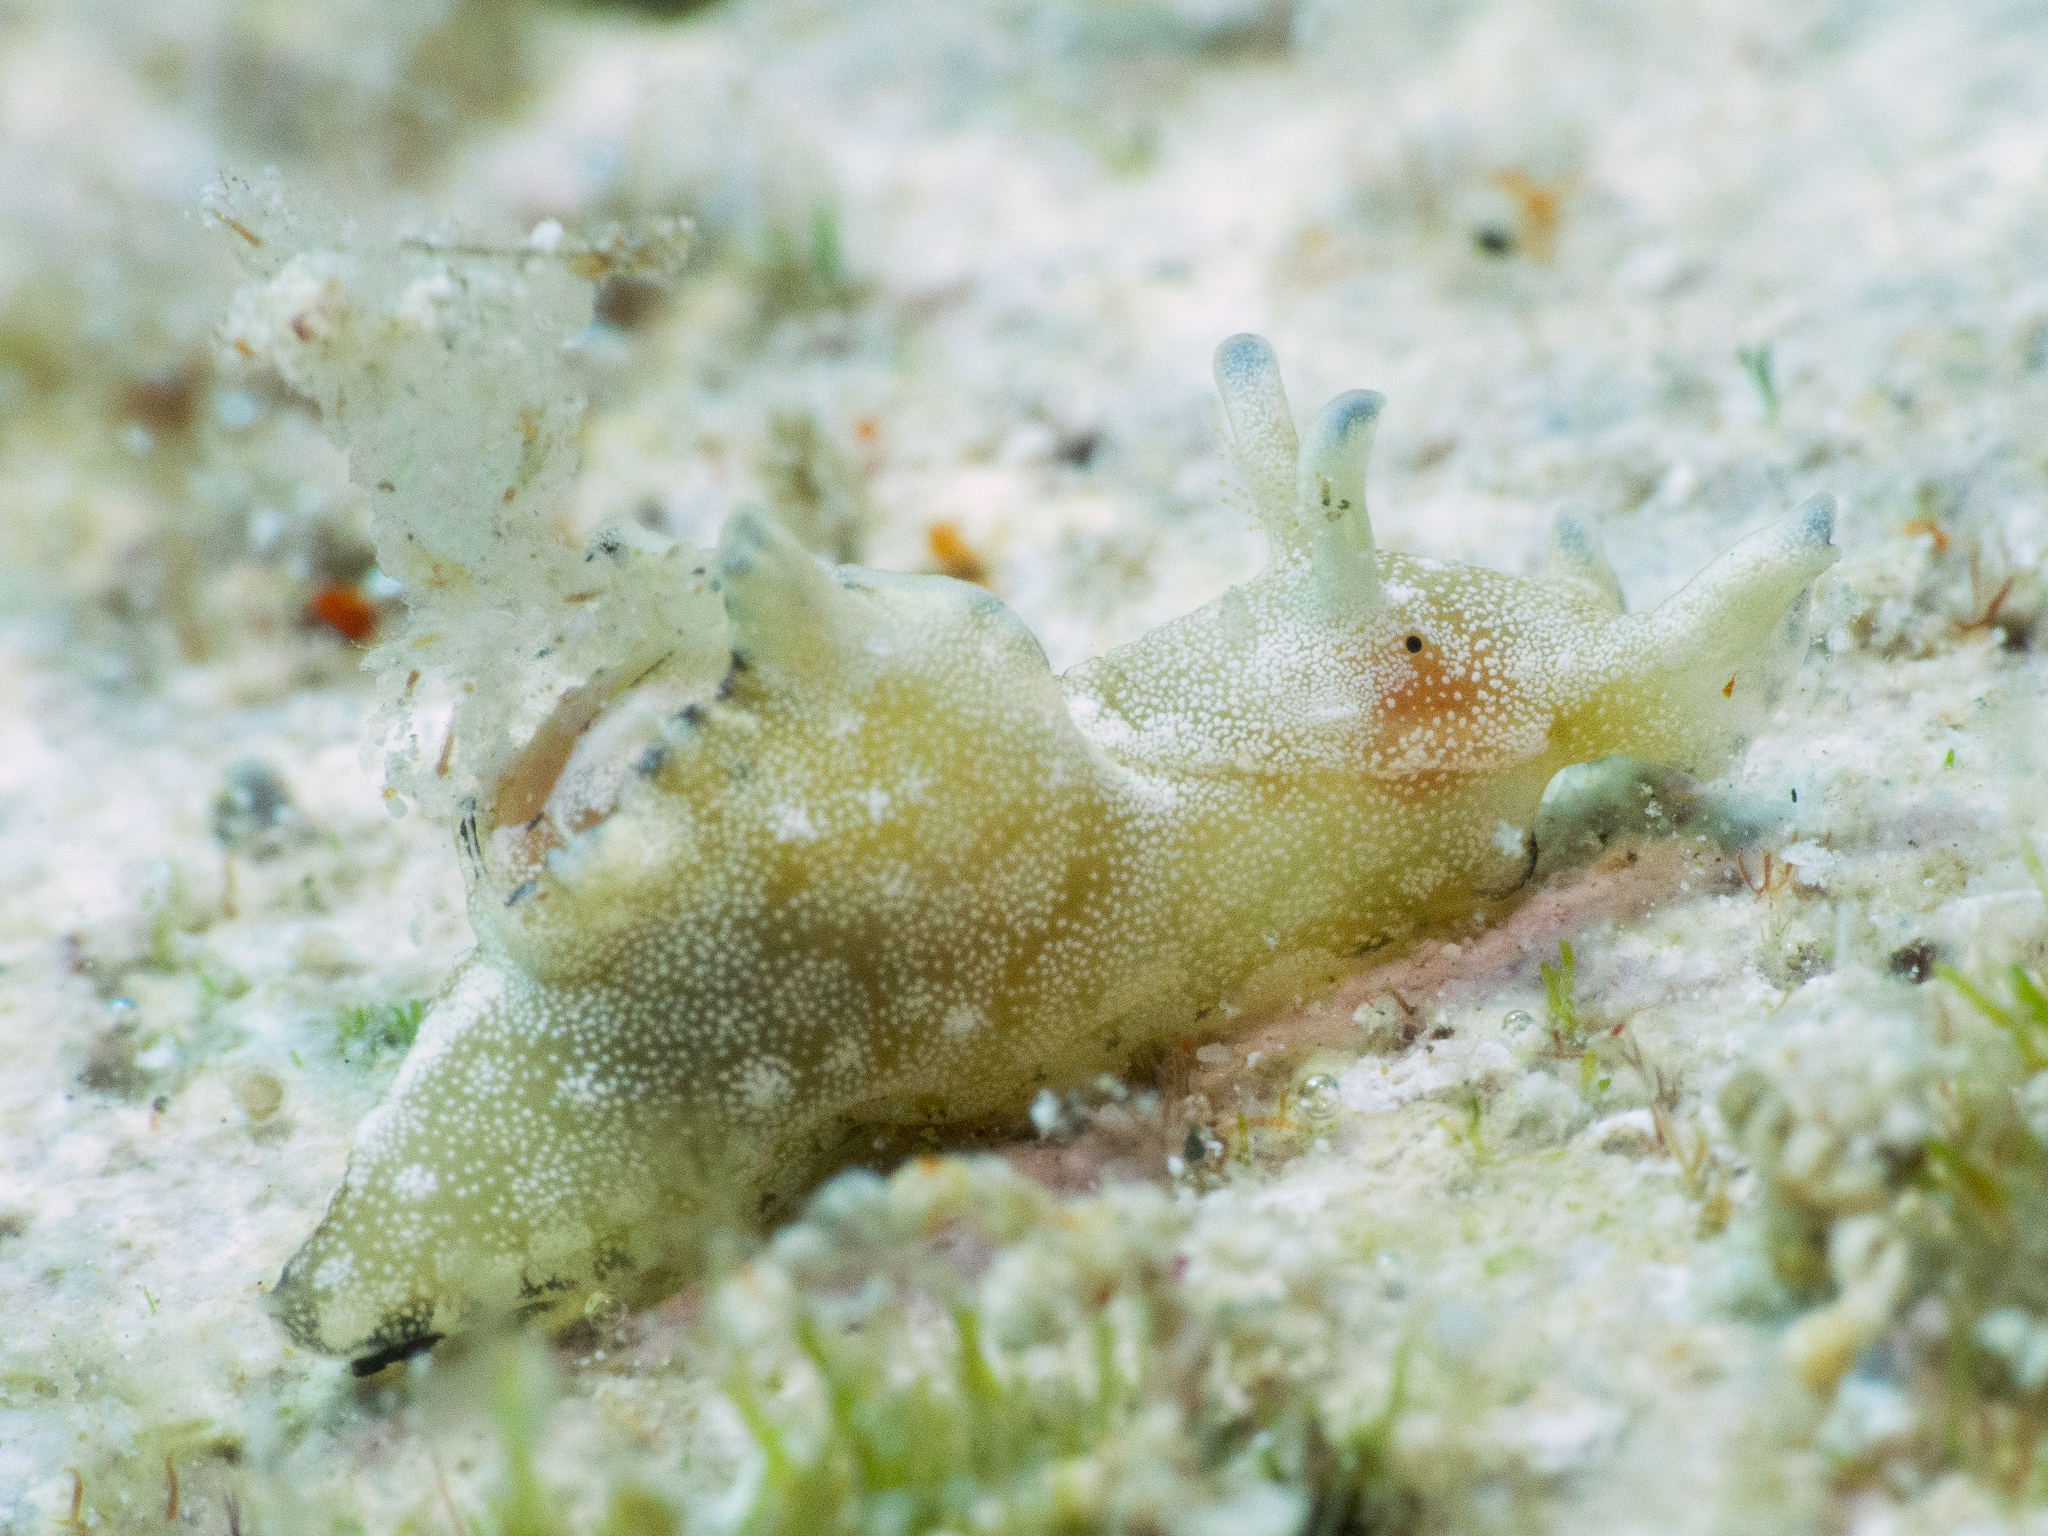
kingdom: Animalia
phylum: Mollusca
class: Gastropoda
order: Aplysiida
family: Aplysiidae
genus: Aplysia
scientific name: Aplysia parvula
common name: Dwarf sea hare
